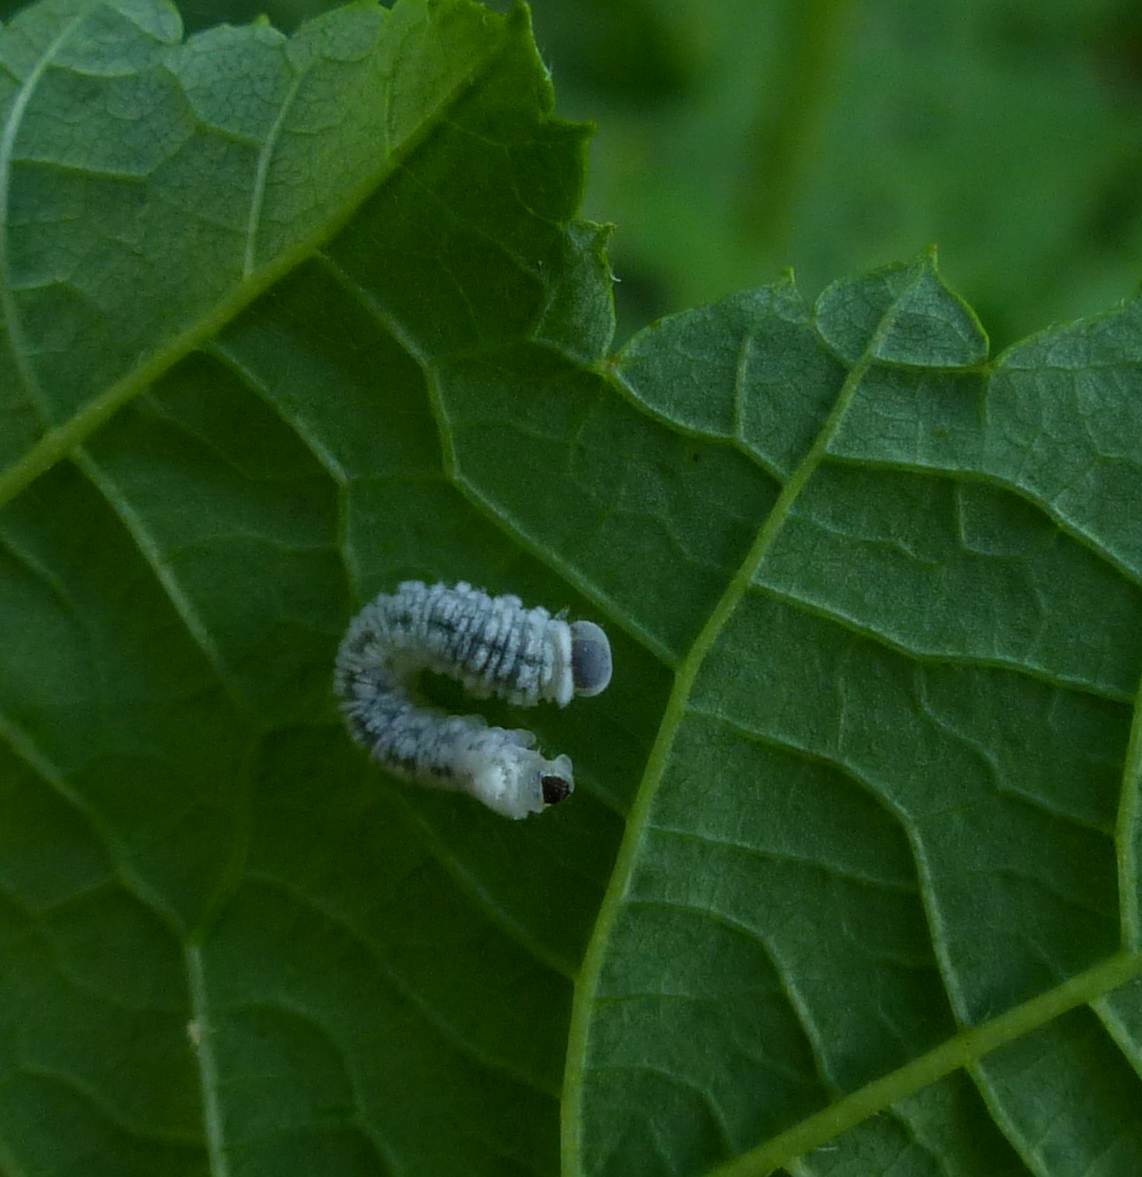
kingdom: Animalia
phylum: Arthropoda
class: Insecta
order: Hymenoptera
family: Tenthredinidae
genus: Eriocampa
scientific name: Eriocampa ovata
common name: Alder wooly sawfly
